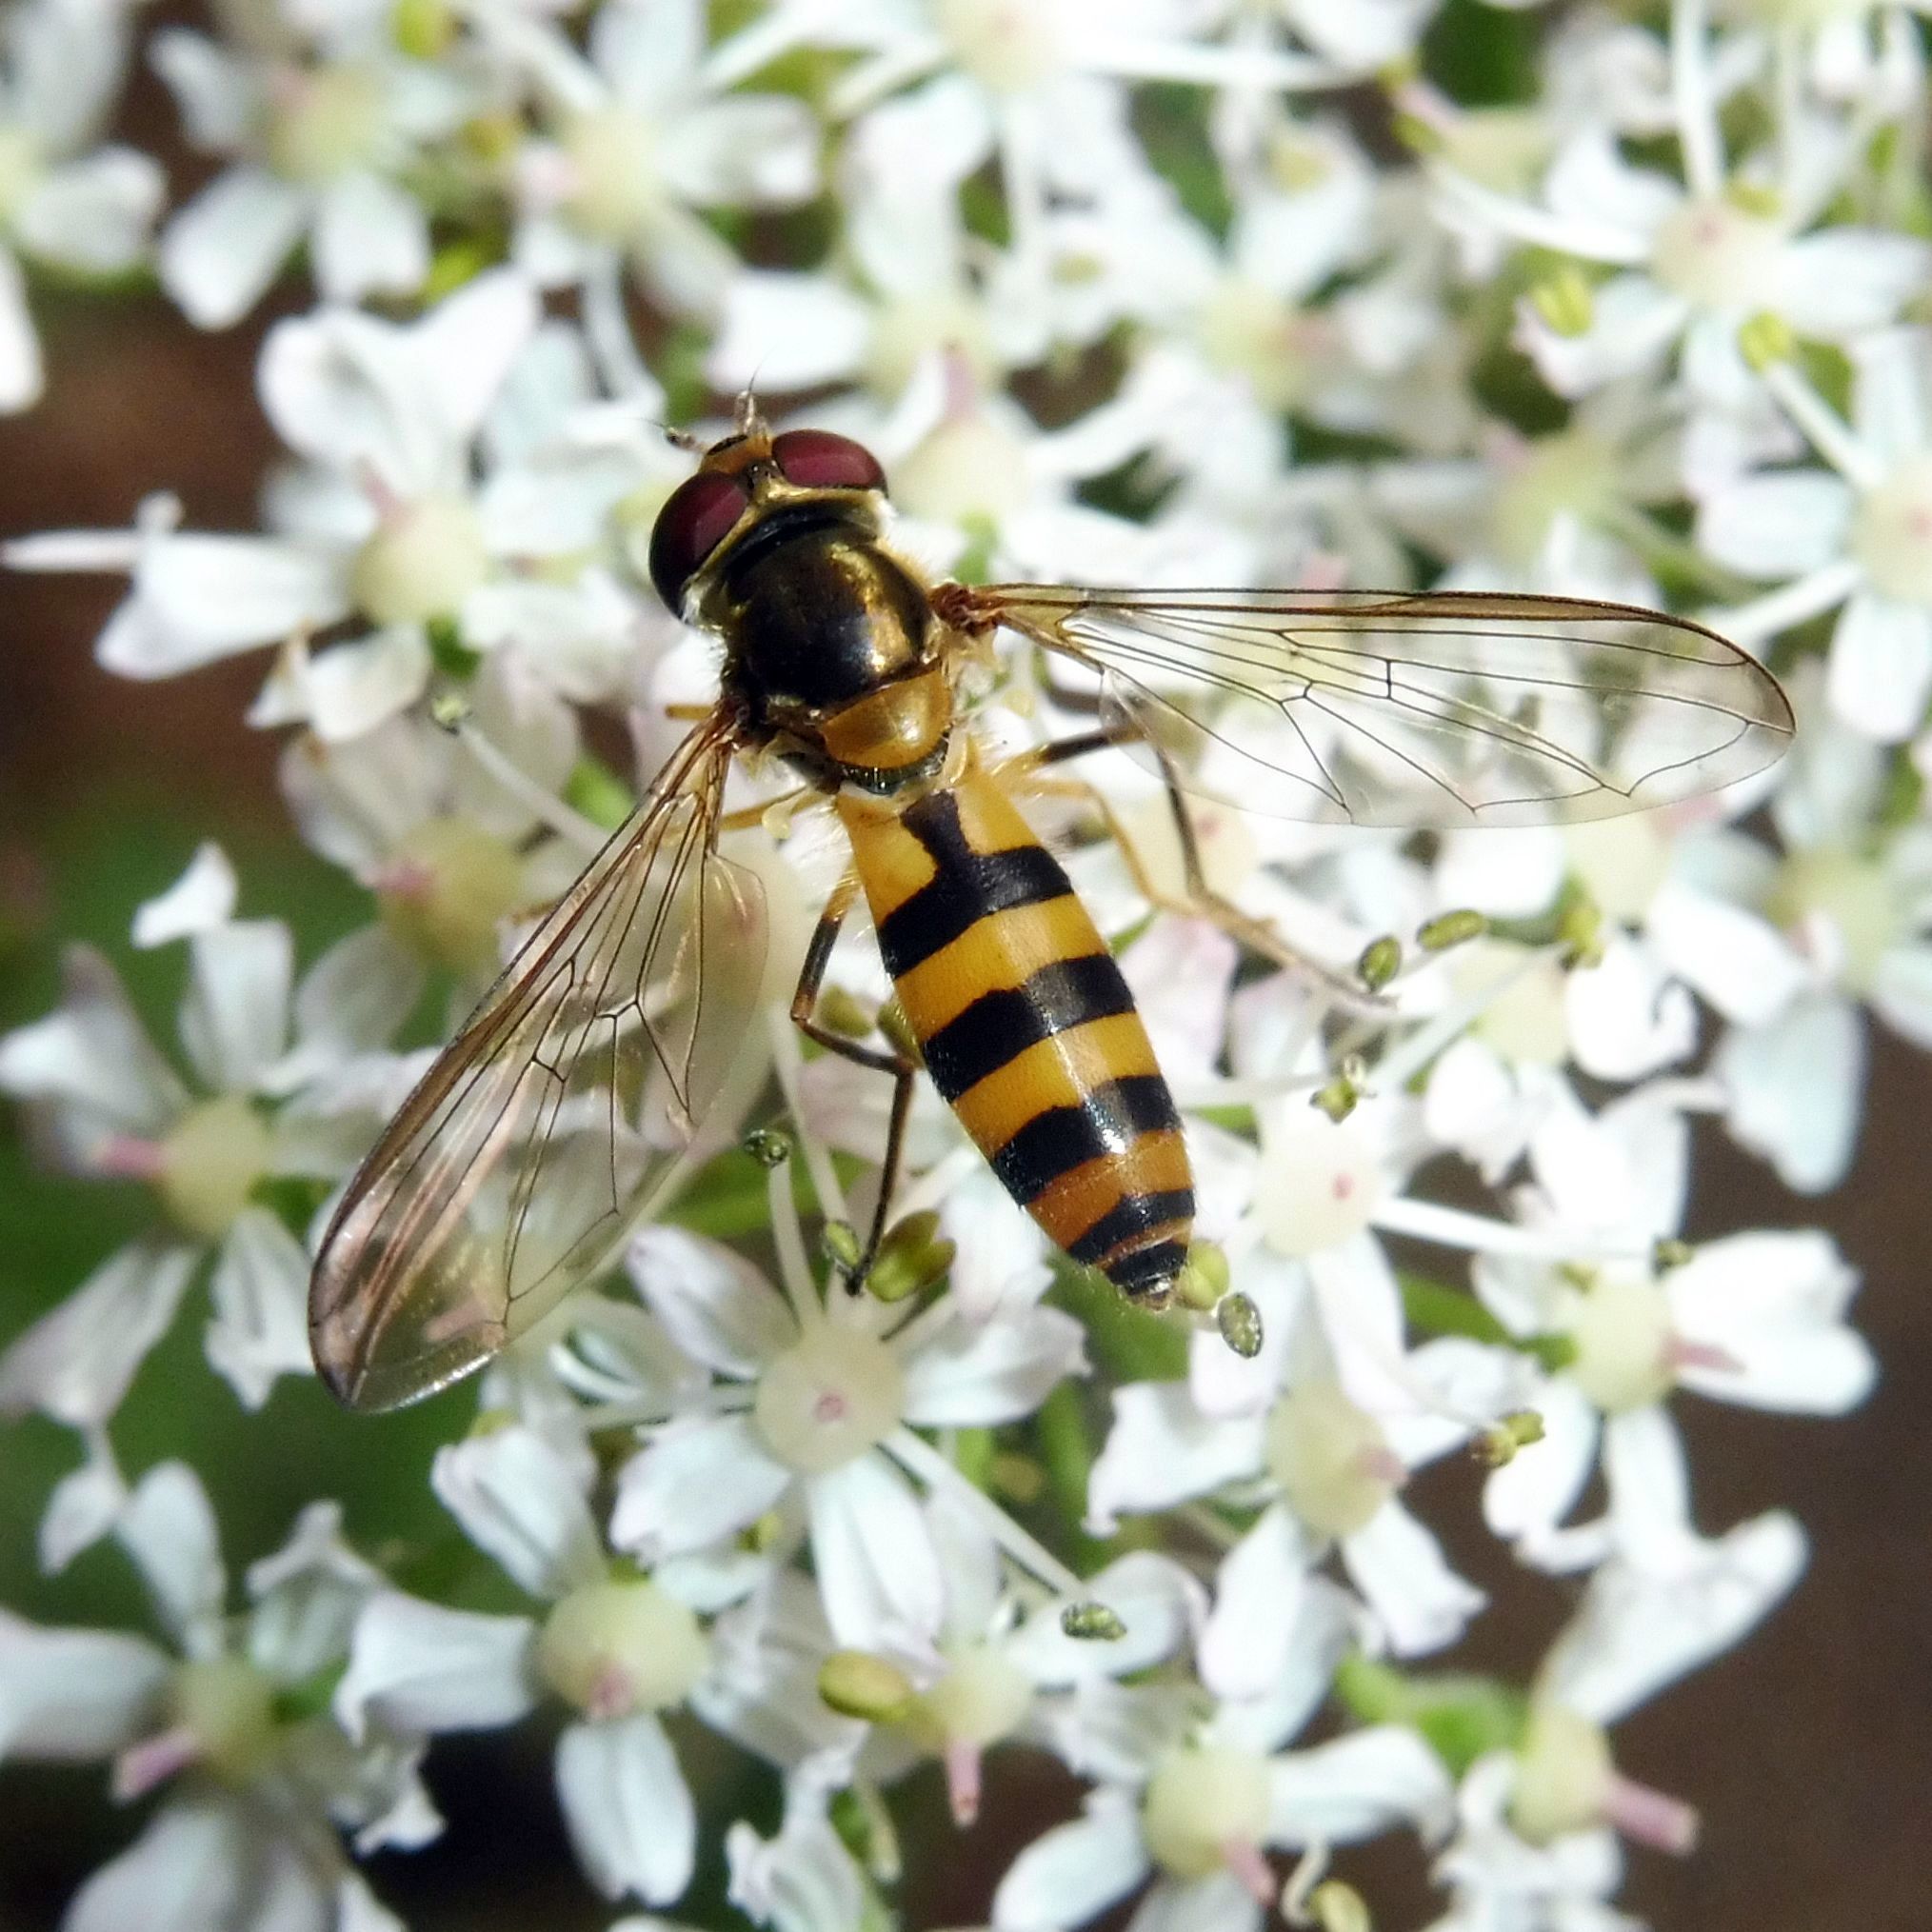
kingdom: Animalia
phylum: Arthropoda
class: Insecta
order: Diptera
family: Syrphidae
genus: Meliscaeva
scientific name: Meliscaeva cinctella
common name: American thintail fly
